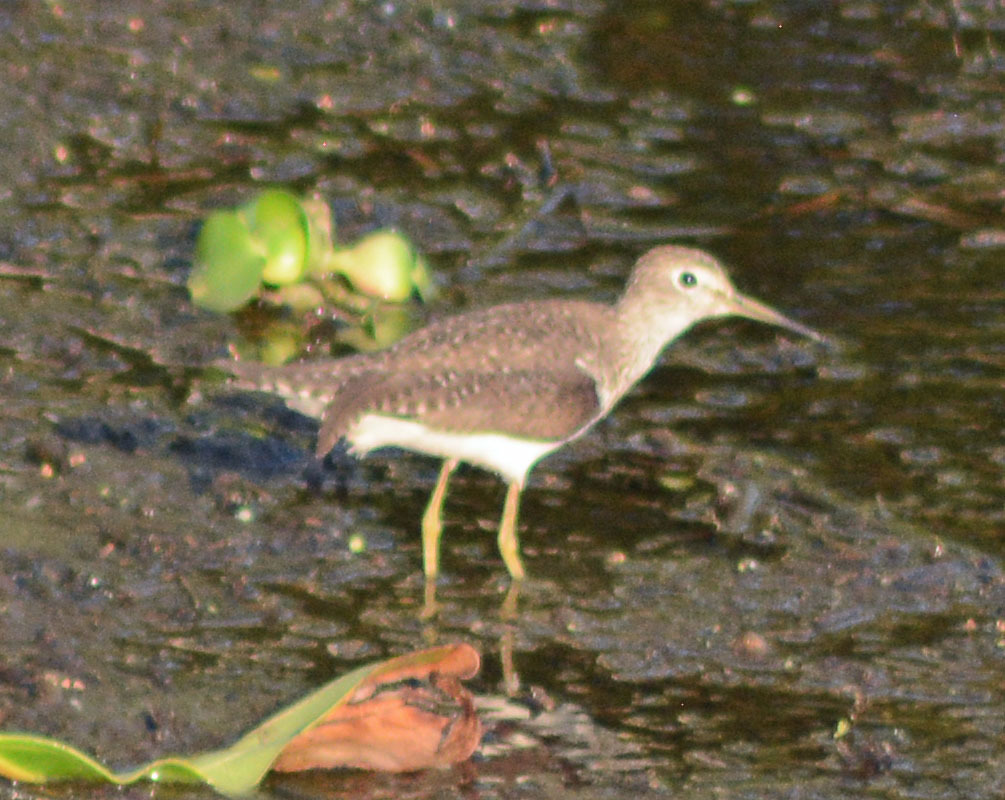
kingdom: Animalia
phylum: Chordata
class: Aves
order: Charadriiformes
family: Scolopacidae
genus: Tringa
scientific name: Tringa solitaria
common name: Solitary sandpiper
